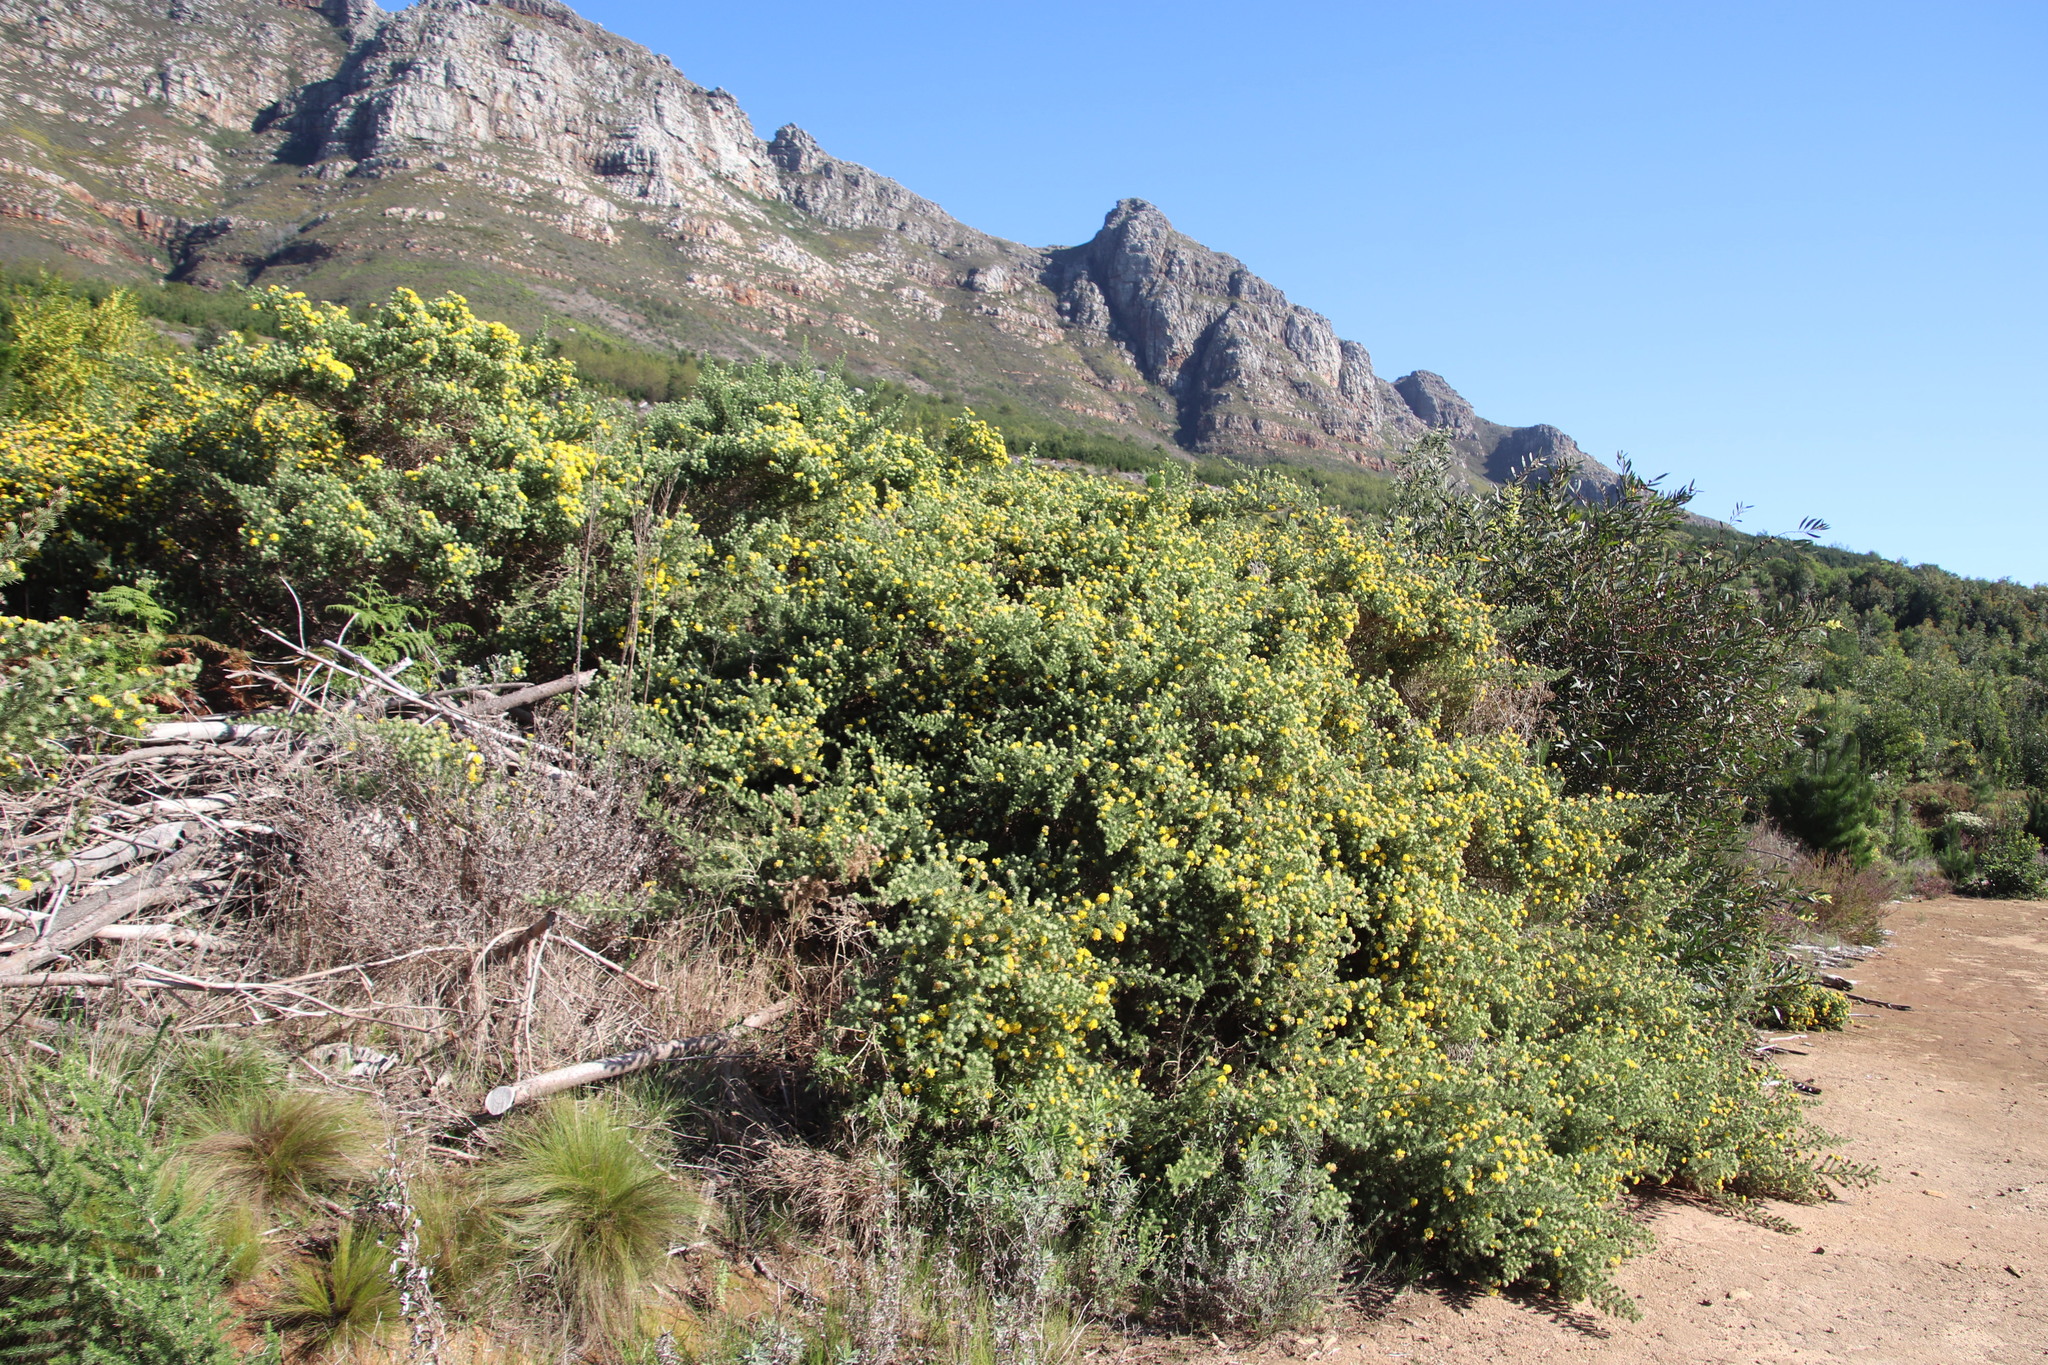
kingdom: Plantae
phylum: Tracheophyta
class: Magnoliopsida
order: Fabales
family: Fabaceae
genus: Aspalathus
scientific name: Aspalathus chenopoda
